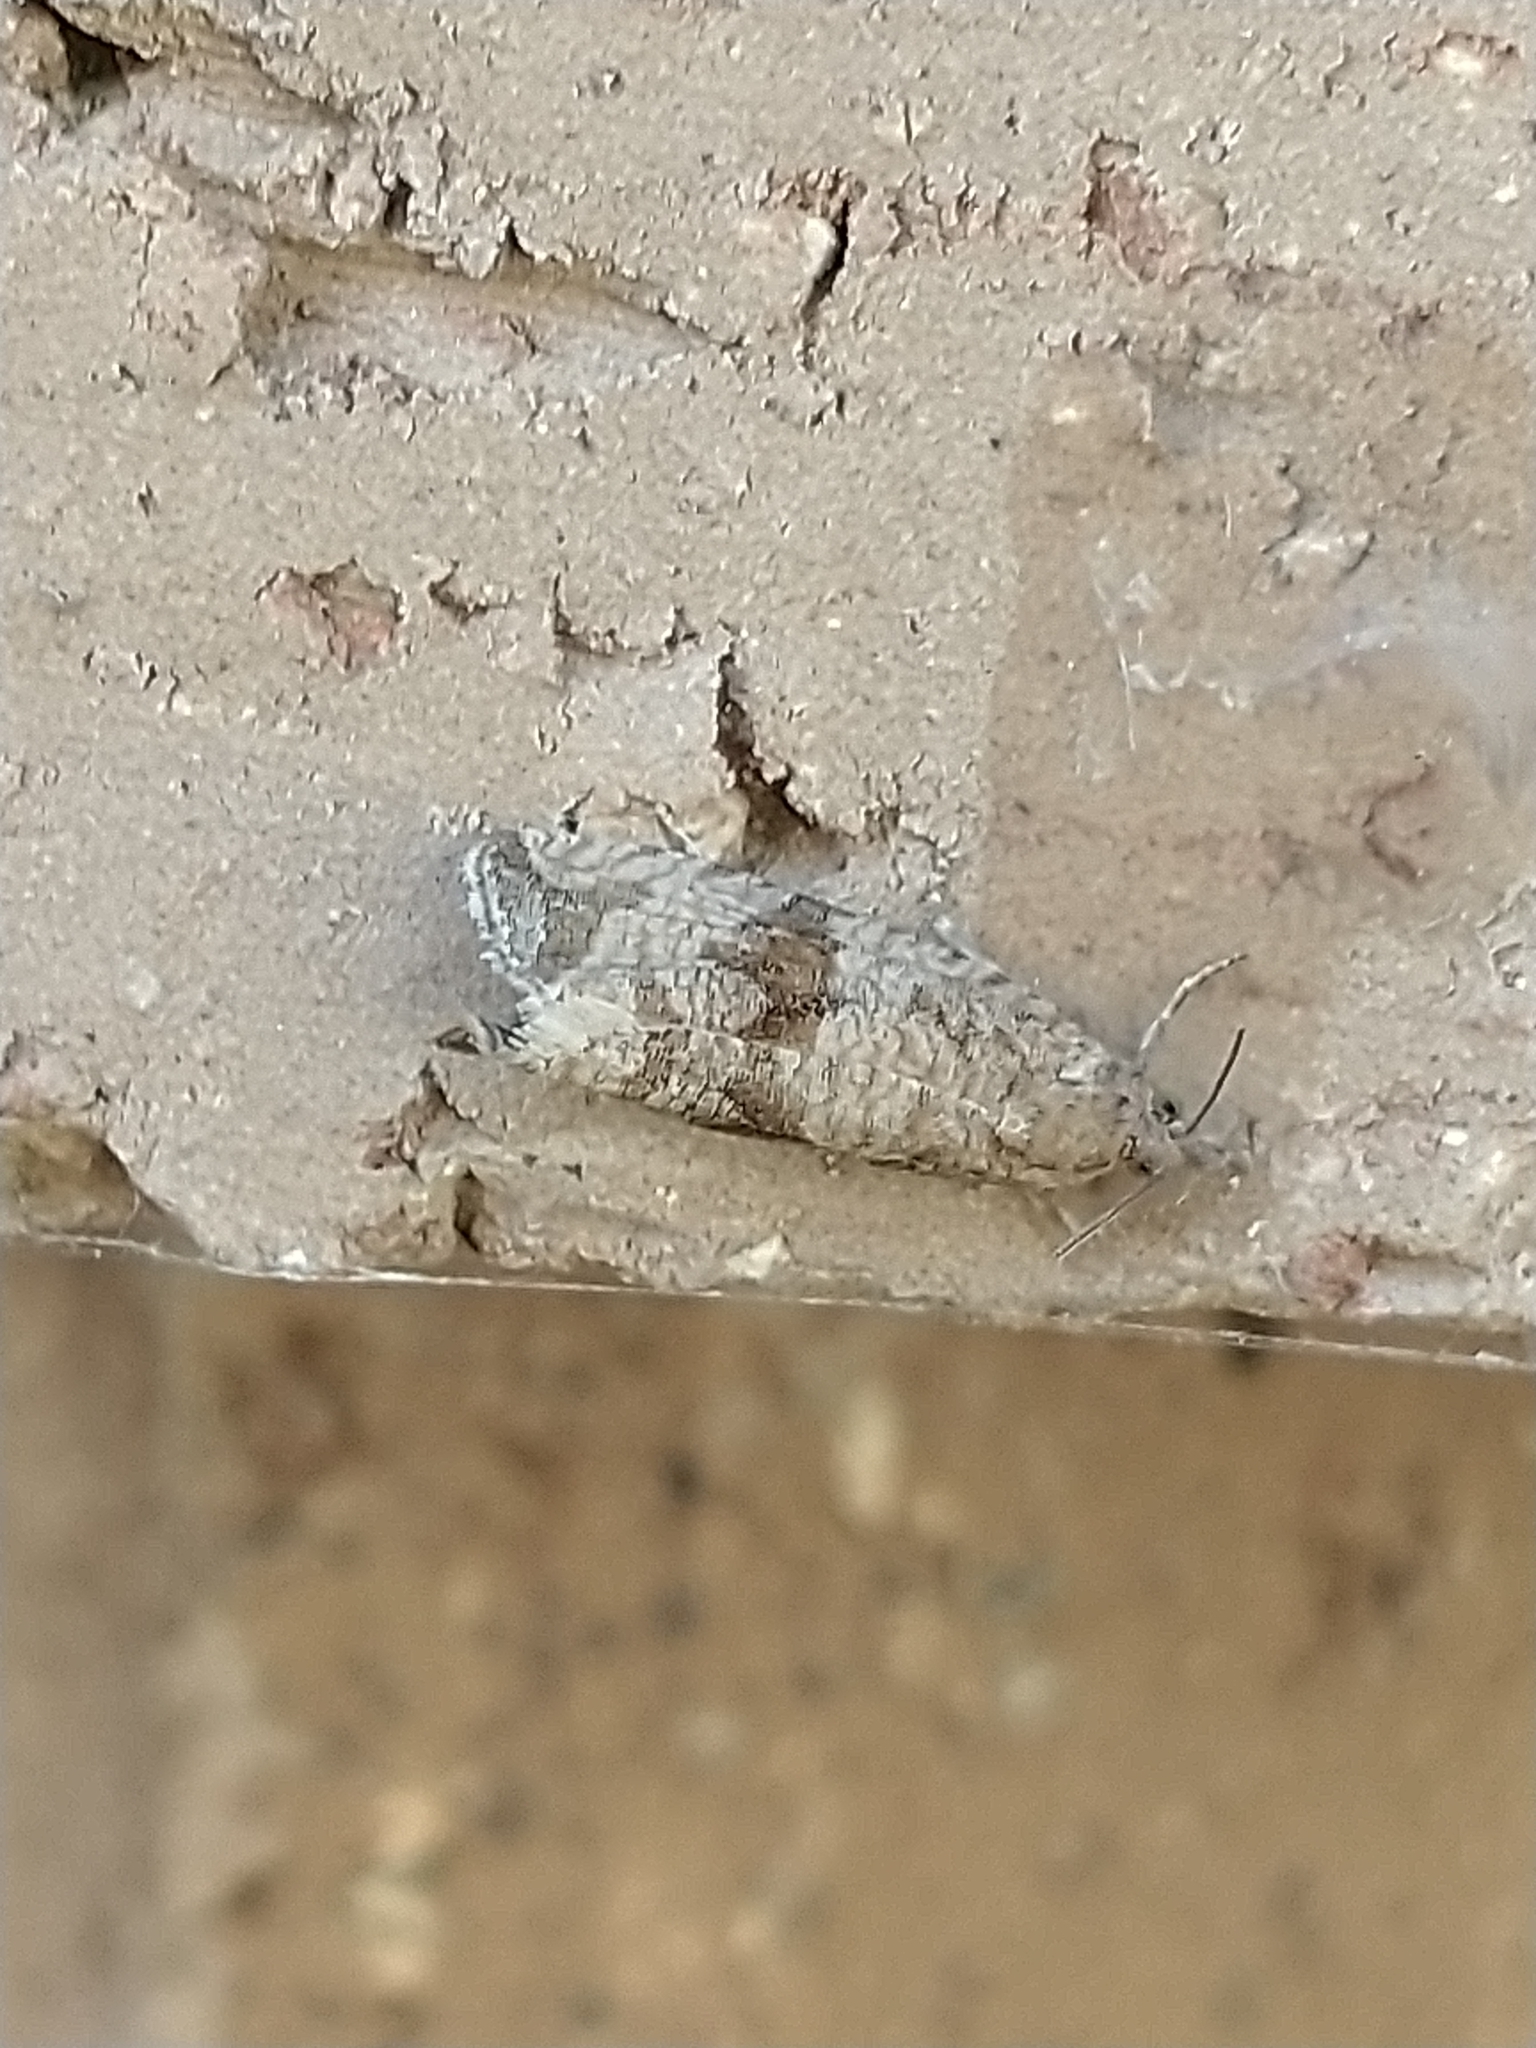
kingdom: Animalia
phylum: Arthropoda
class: Insecta
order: Lepidoptera
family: Tortricidae
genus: Celypha
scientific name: Celypha striana
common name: Barred marble
